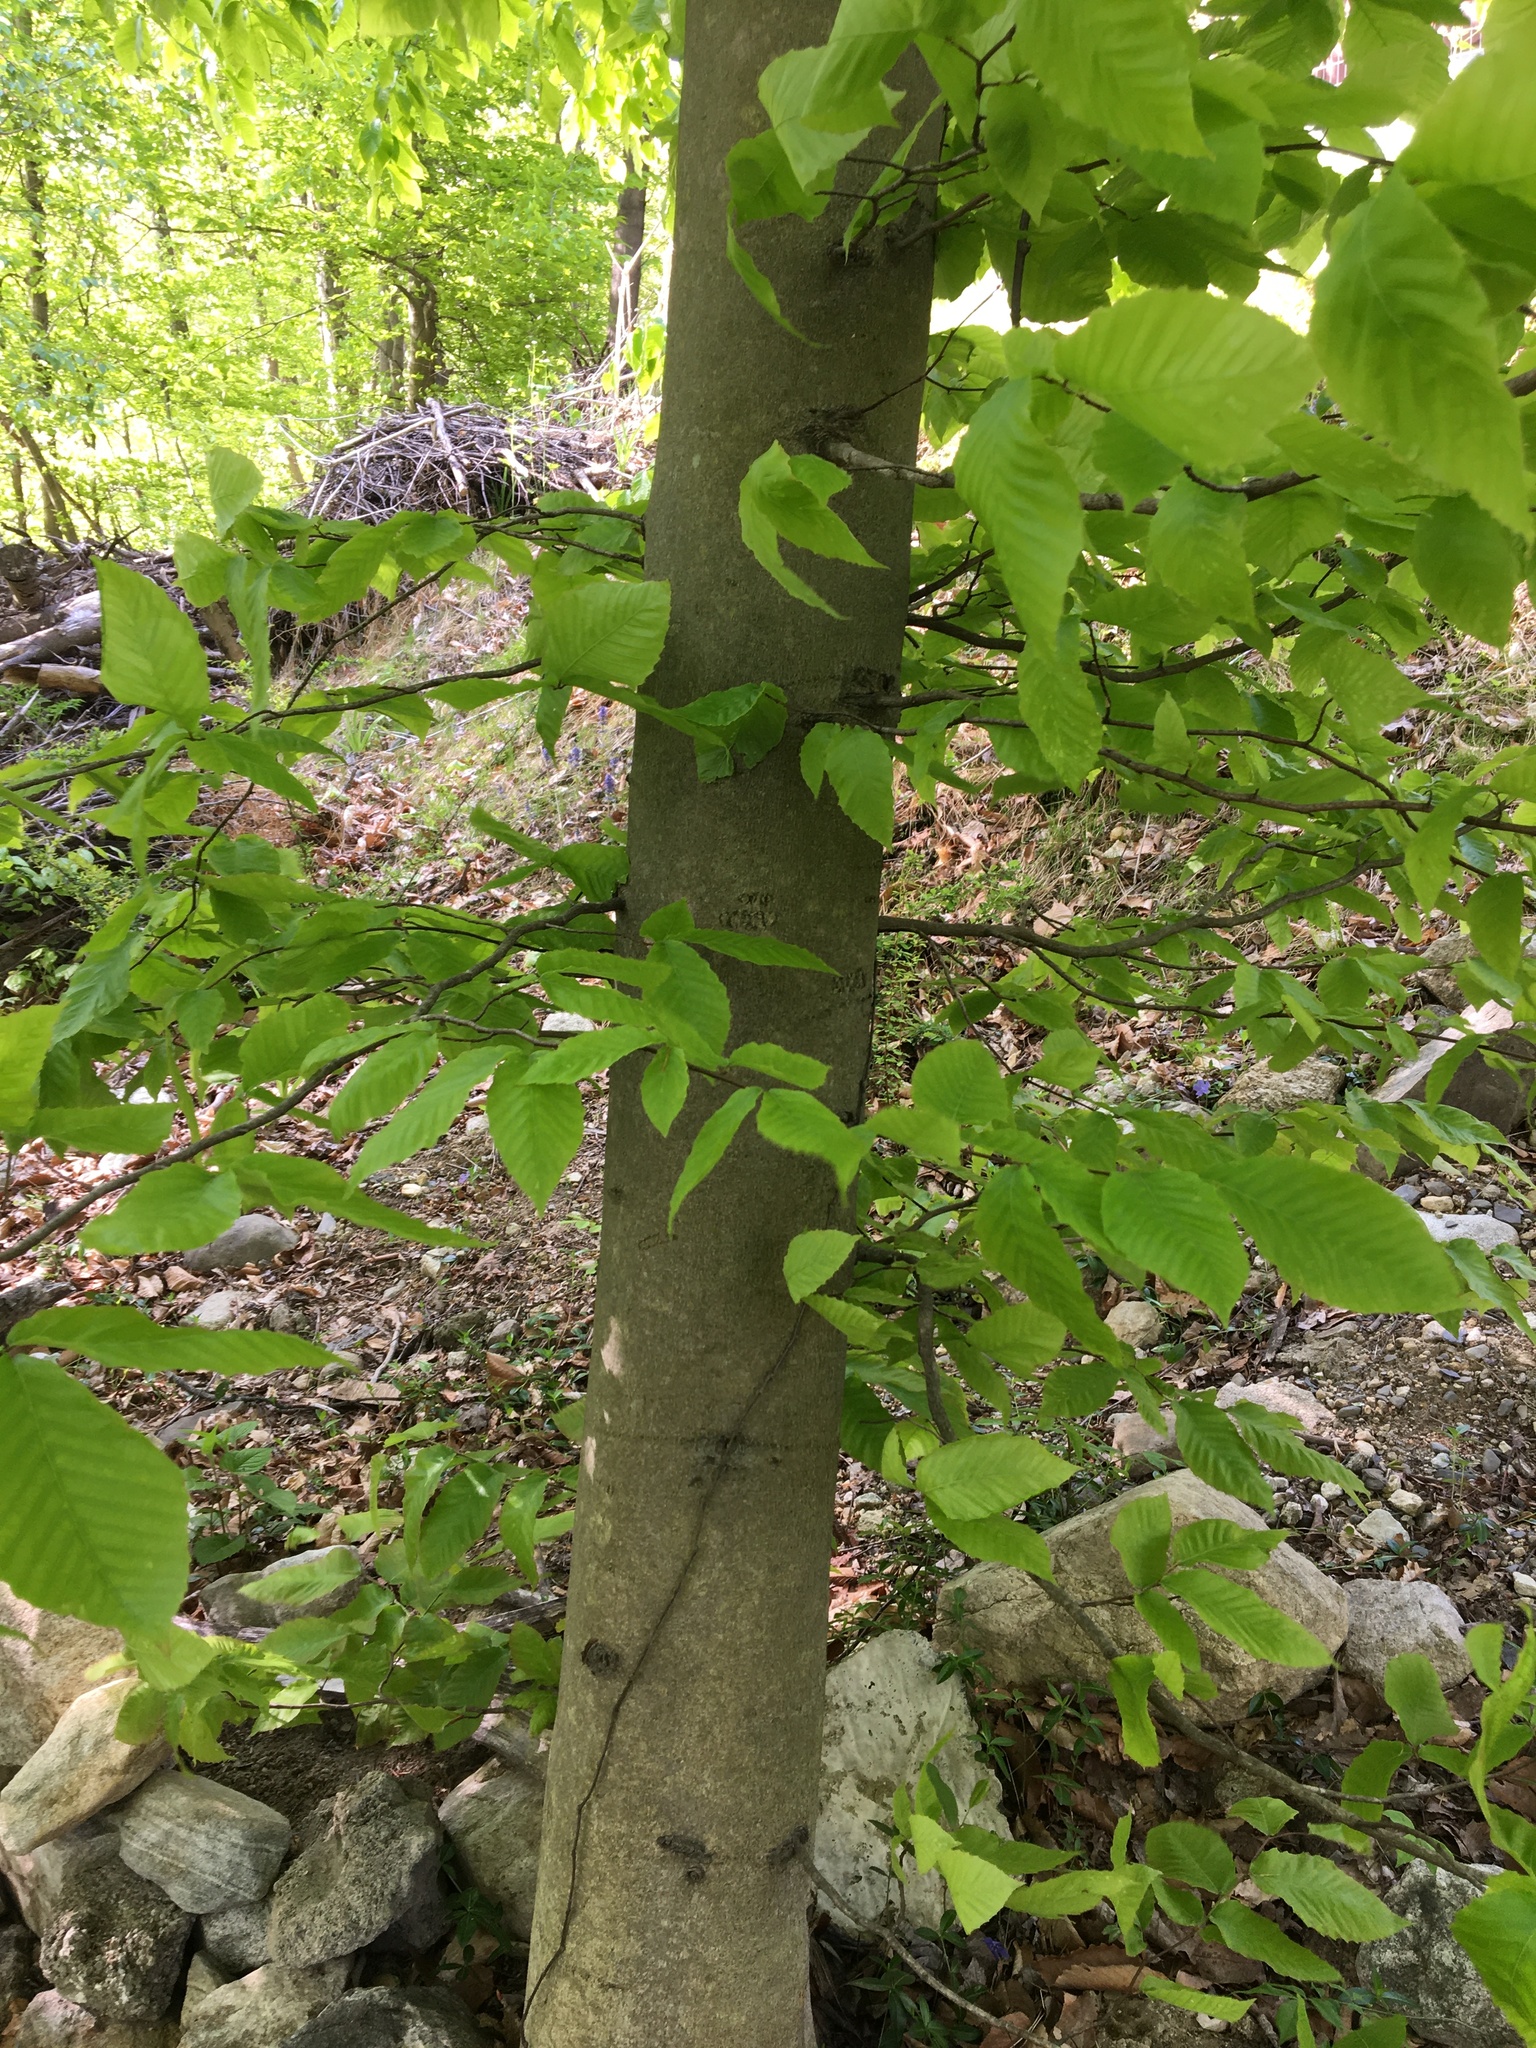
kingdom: Plantae
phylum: Tracheophyta
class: Magnoliopsida
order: Fagales
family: Fagaceae
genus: Fagus
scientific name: Fagus grandifolia
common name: American beech
